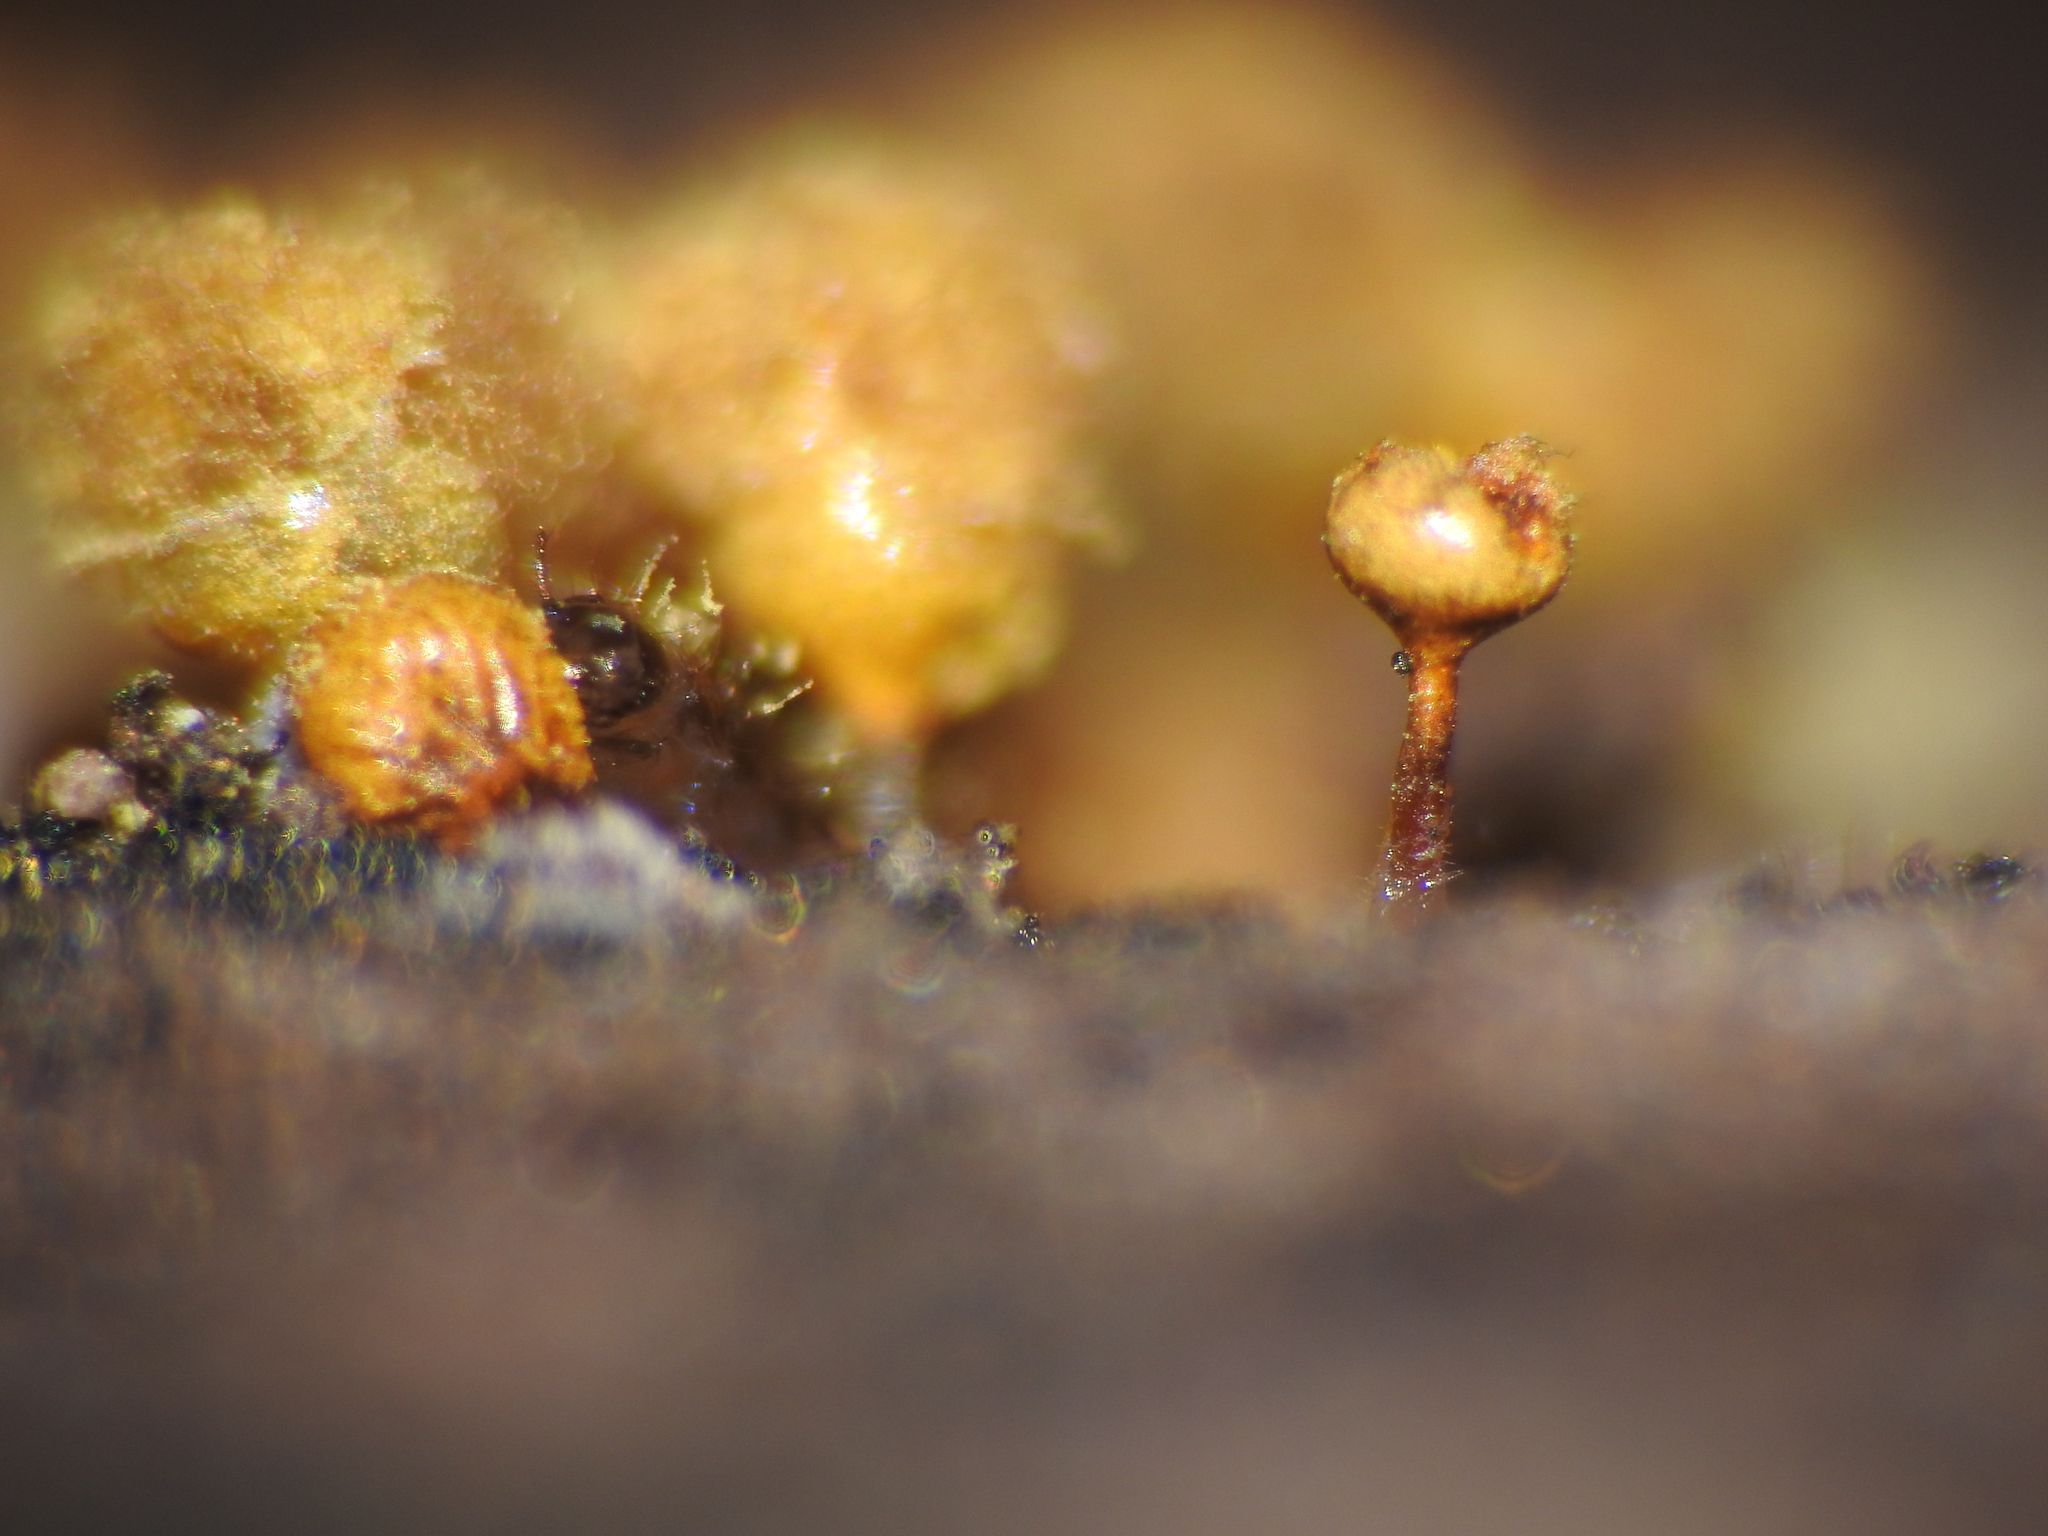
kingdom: Protozoa
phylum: Mycetozoa
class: Myxomycetes
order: Trichiales
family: Arcyriaceae
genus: Hemitrichia
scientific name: Hemitrichia calyculata
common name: Push pin slime mold
